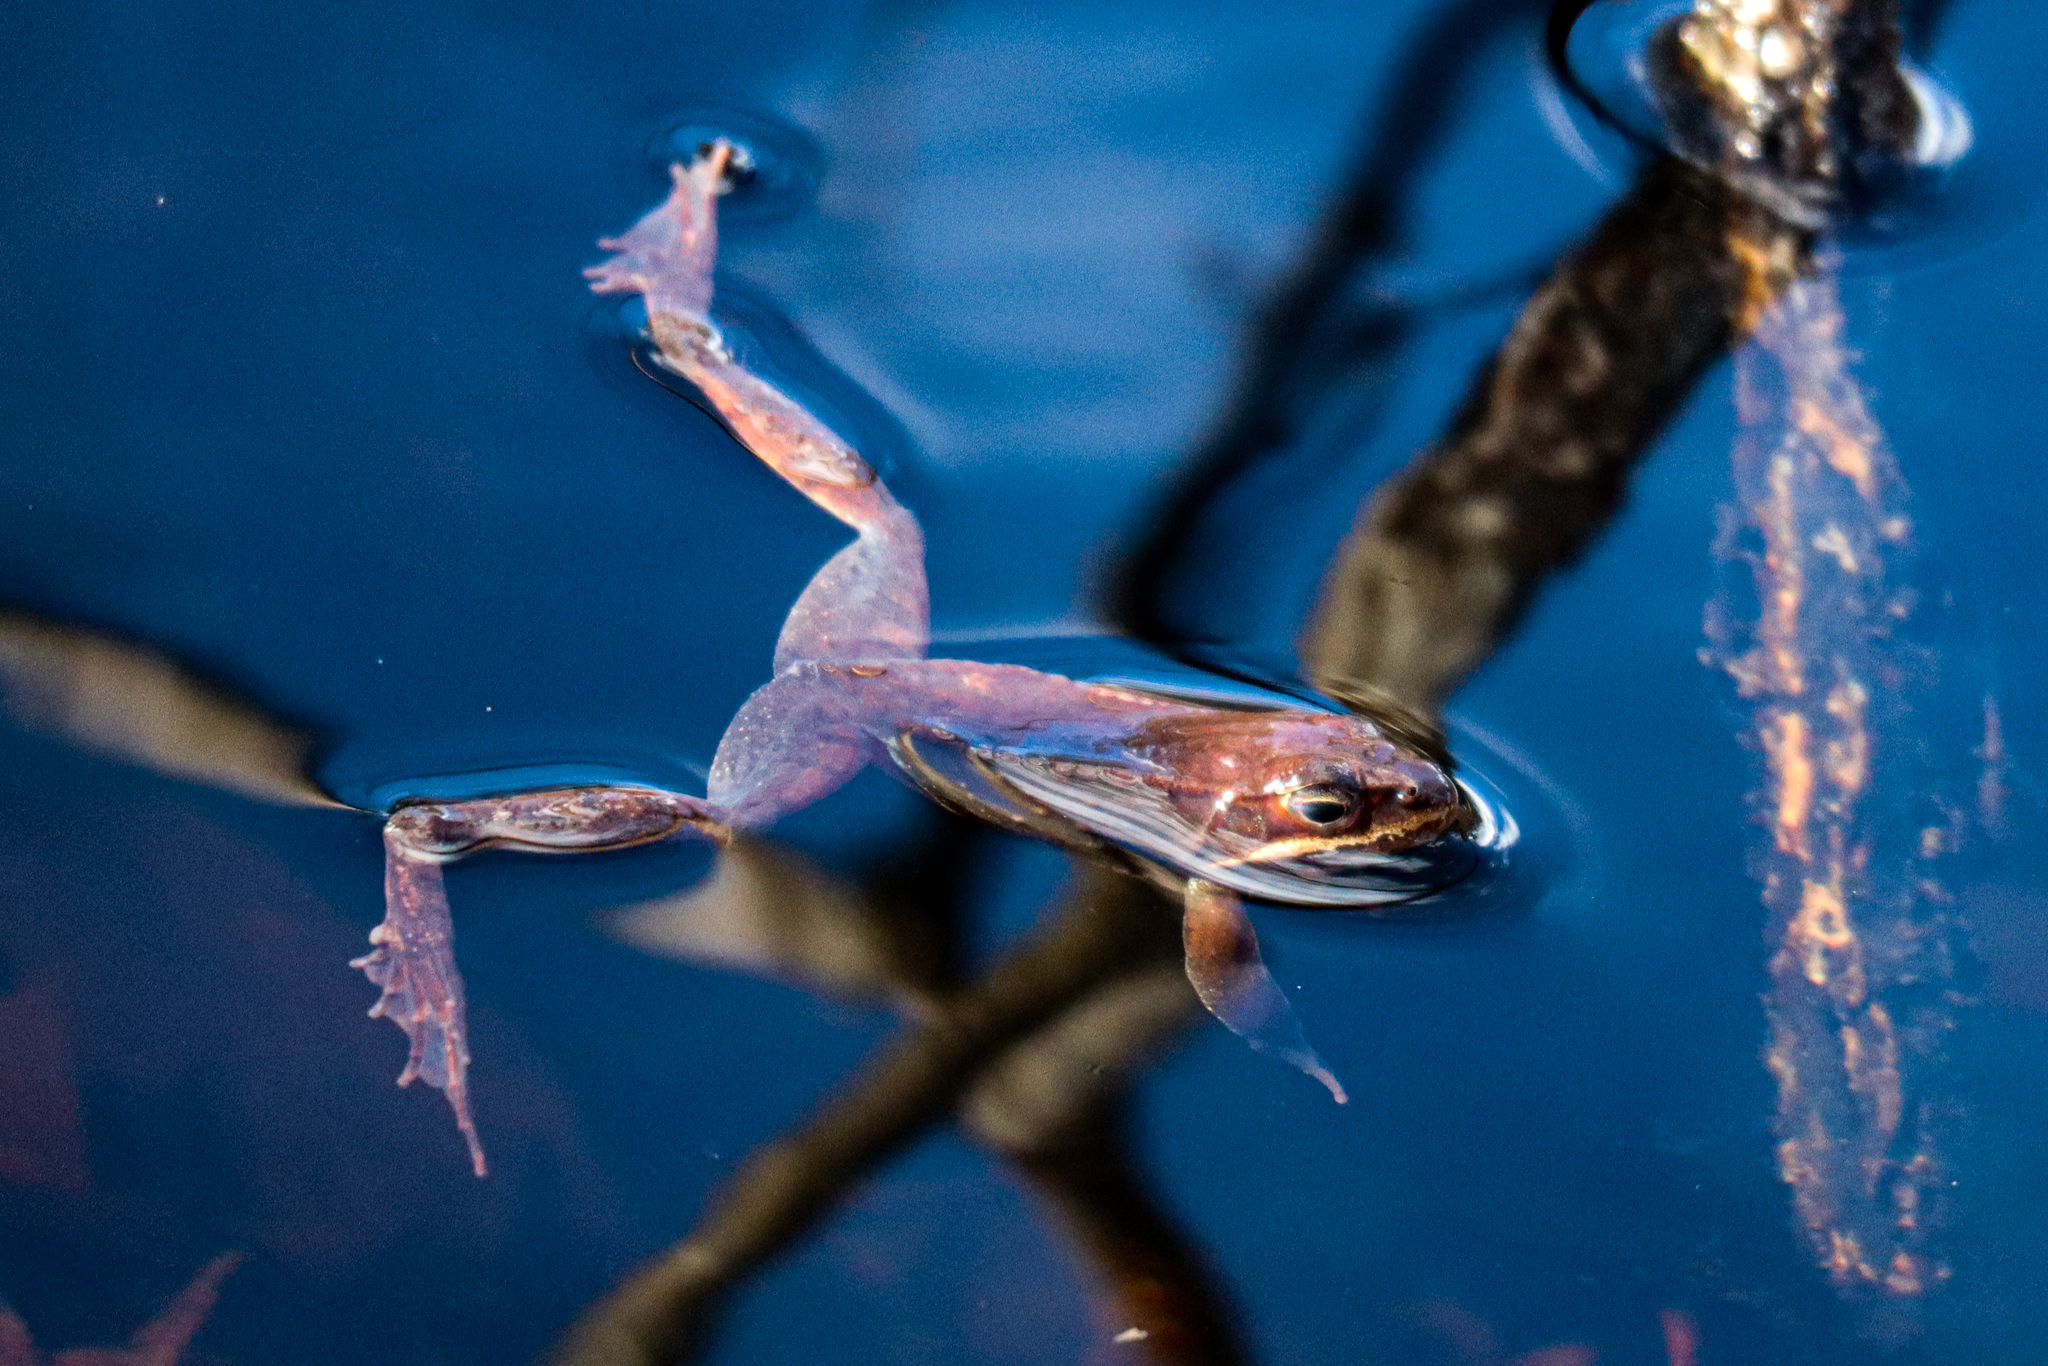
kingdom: Animalia
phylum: Chordata
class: Amphibia
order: Anura
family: Ranidae
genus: Lithobates
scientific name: Lithobates sylvaticus
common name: Wood frog
